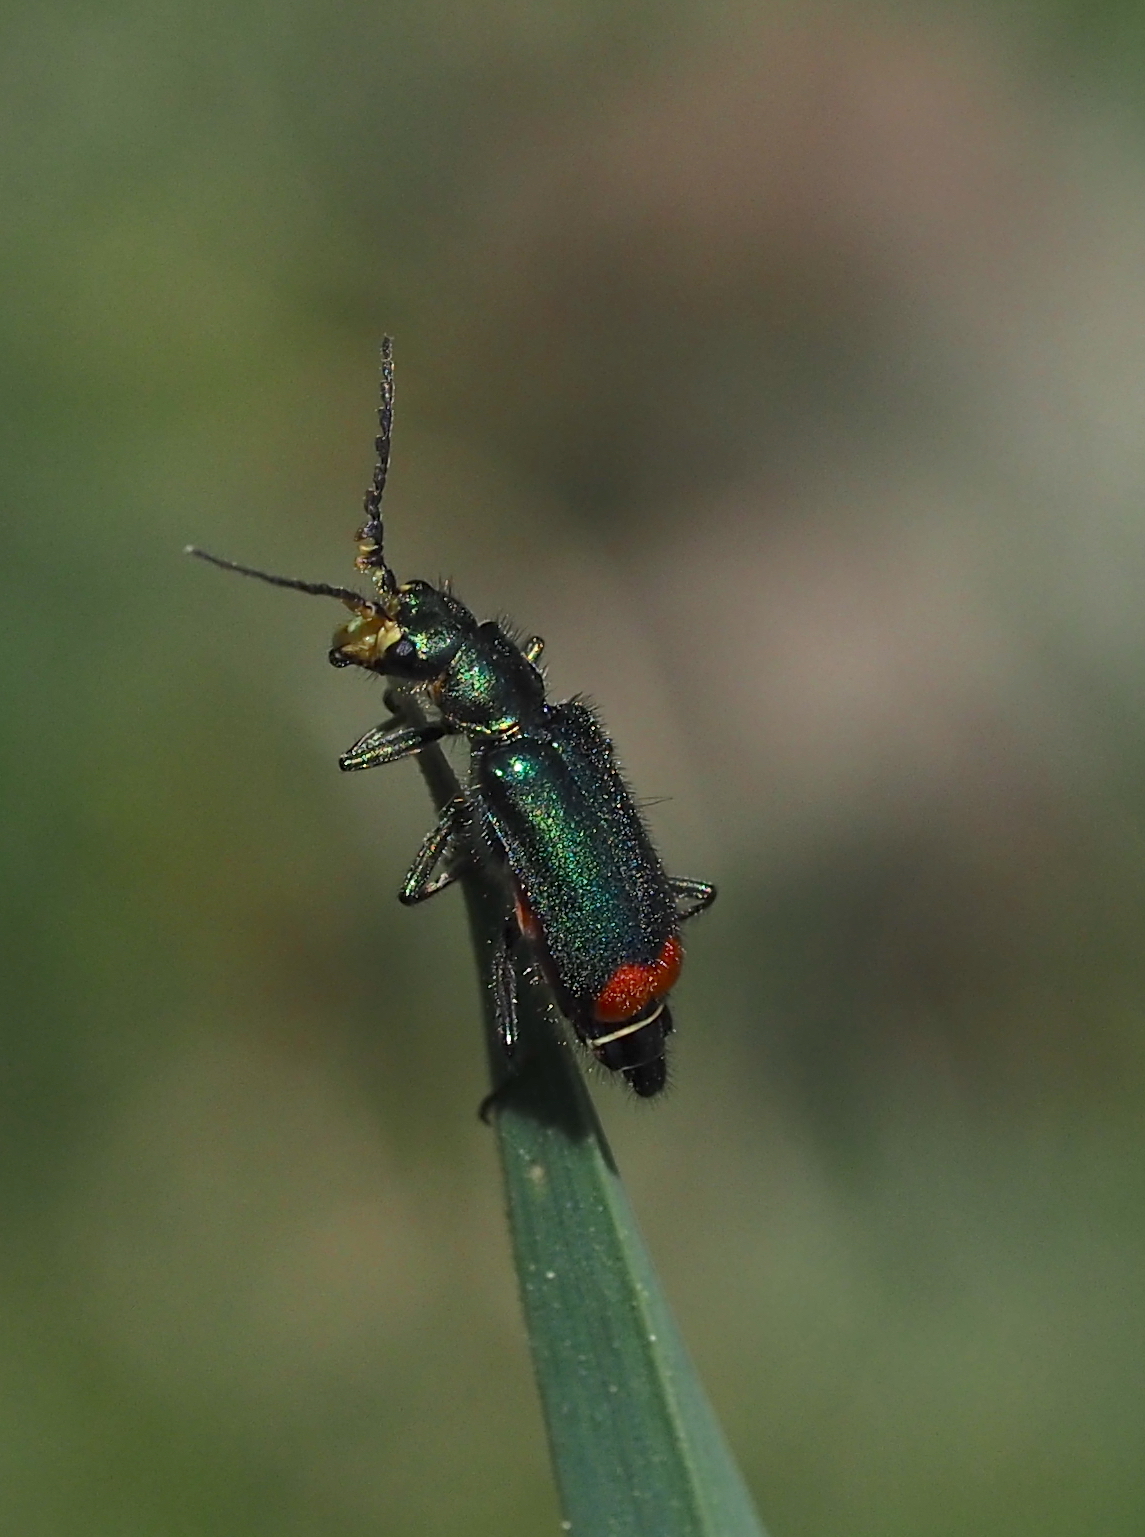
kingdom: Animalia
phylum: Arthropoda
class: Insecta
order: Coleoptera
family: Melyridae
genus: Malachius
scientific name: Malachius bipustulatus
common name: Malachite beetle
